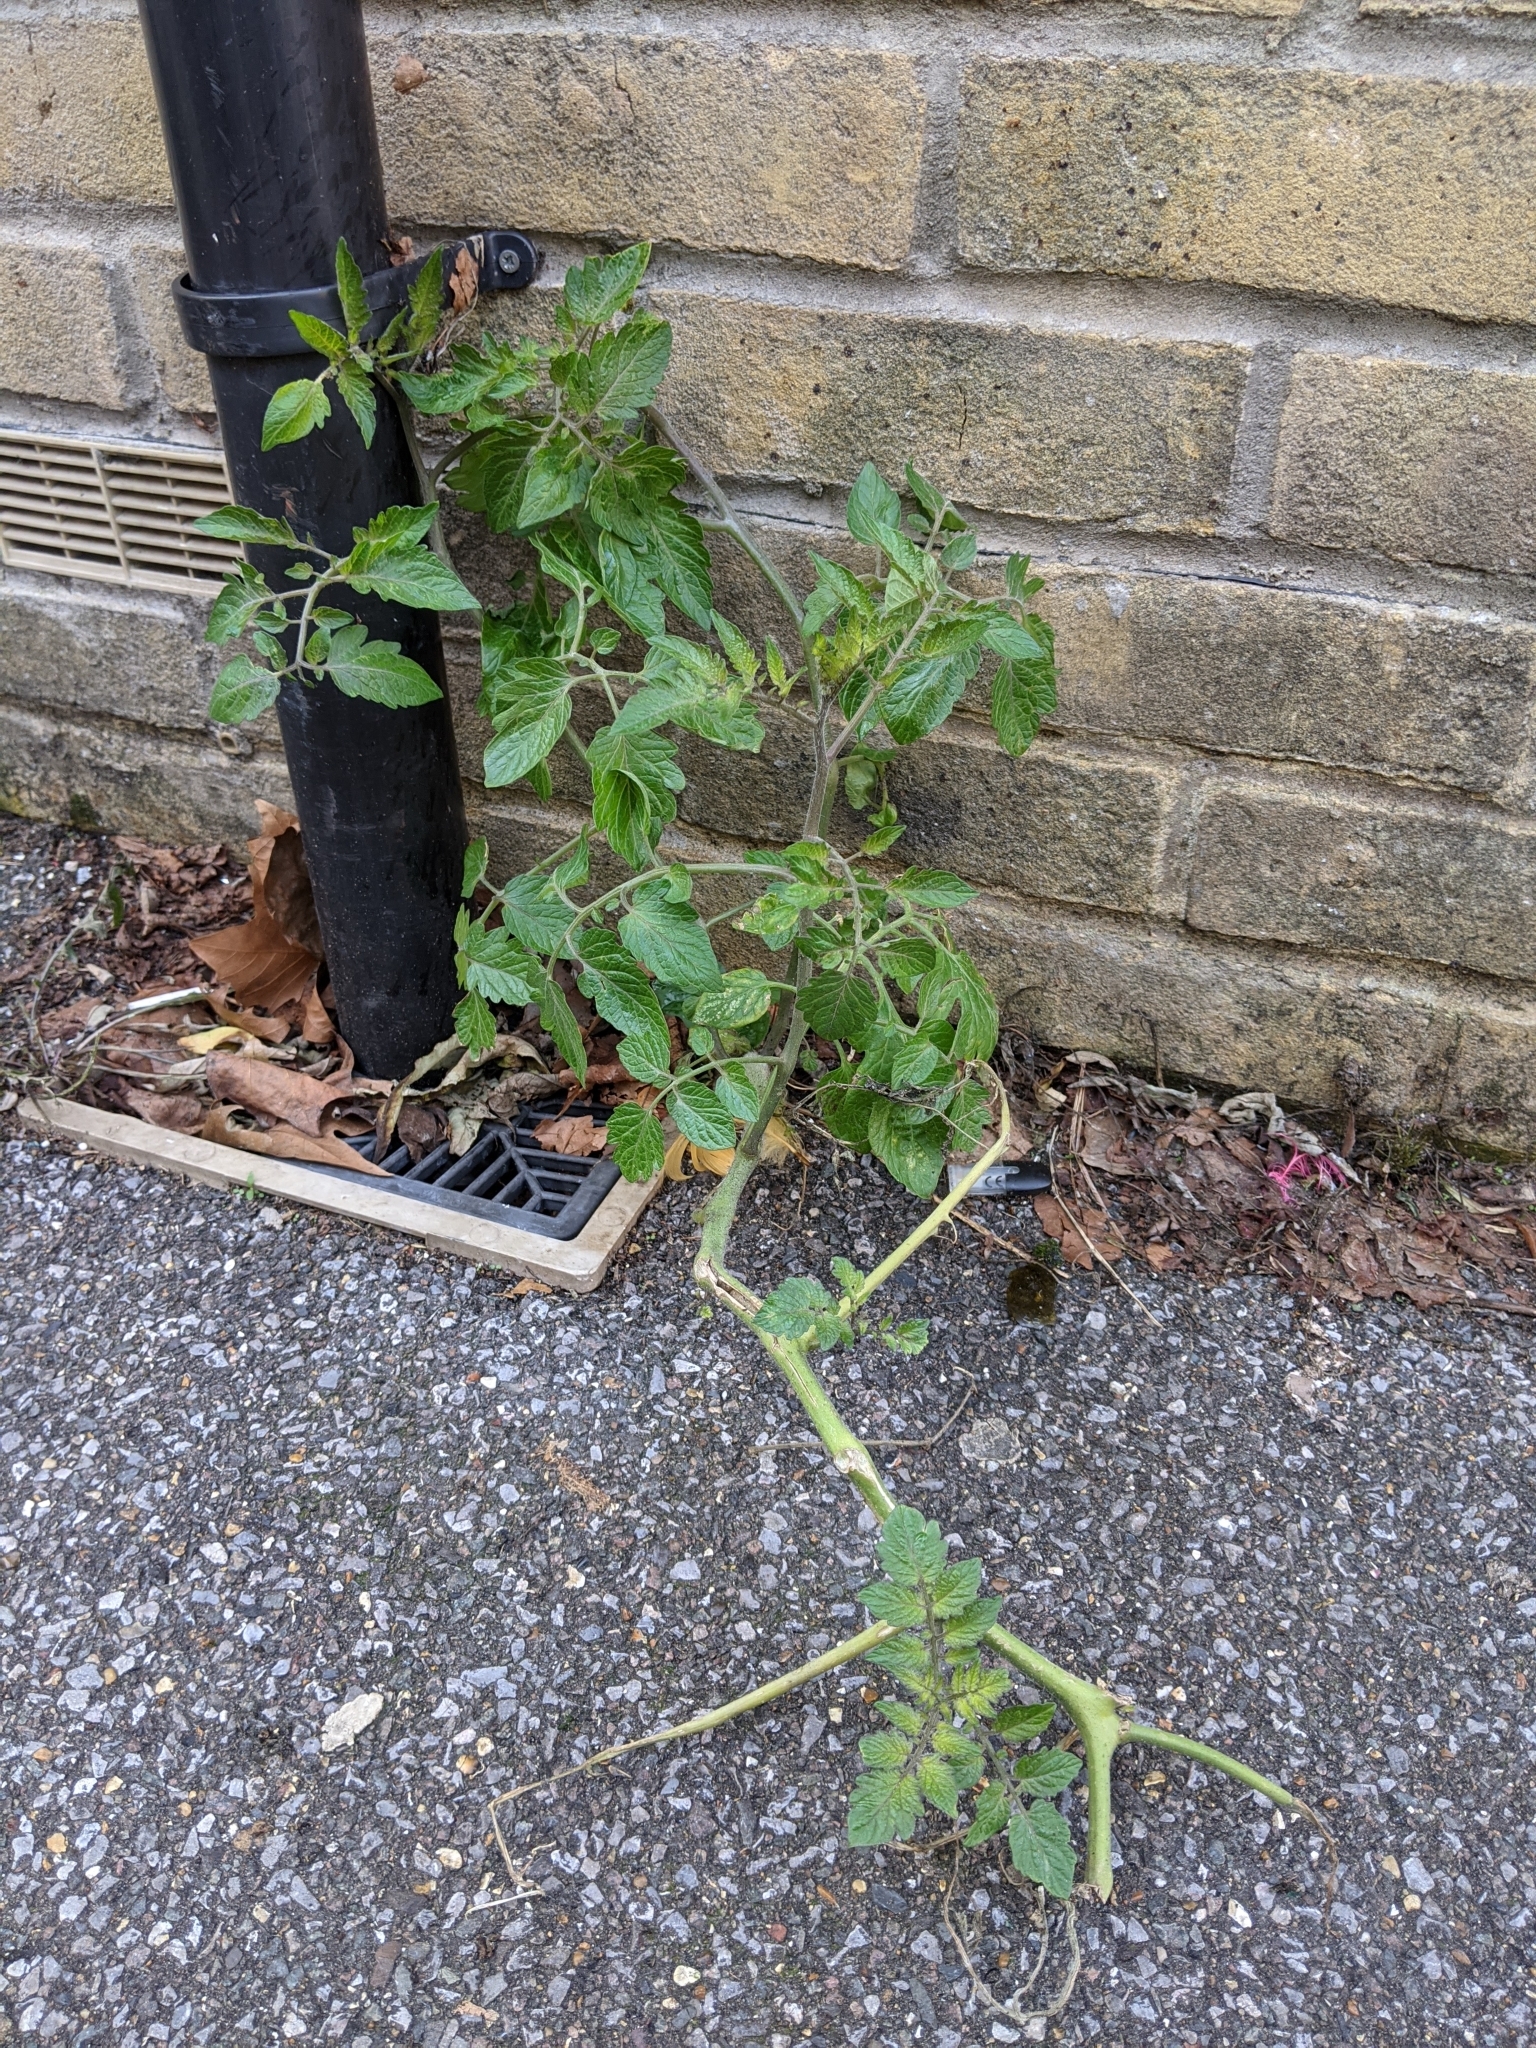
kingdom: Plantae
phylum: Tracheophyta
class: Magnoliopsida
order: Solanales
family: Solanaceae
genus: Solanum
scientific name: Solanum lycopersicum
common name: Garden tomato
